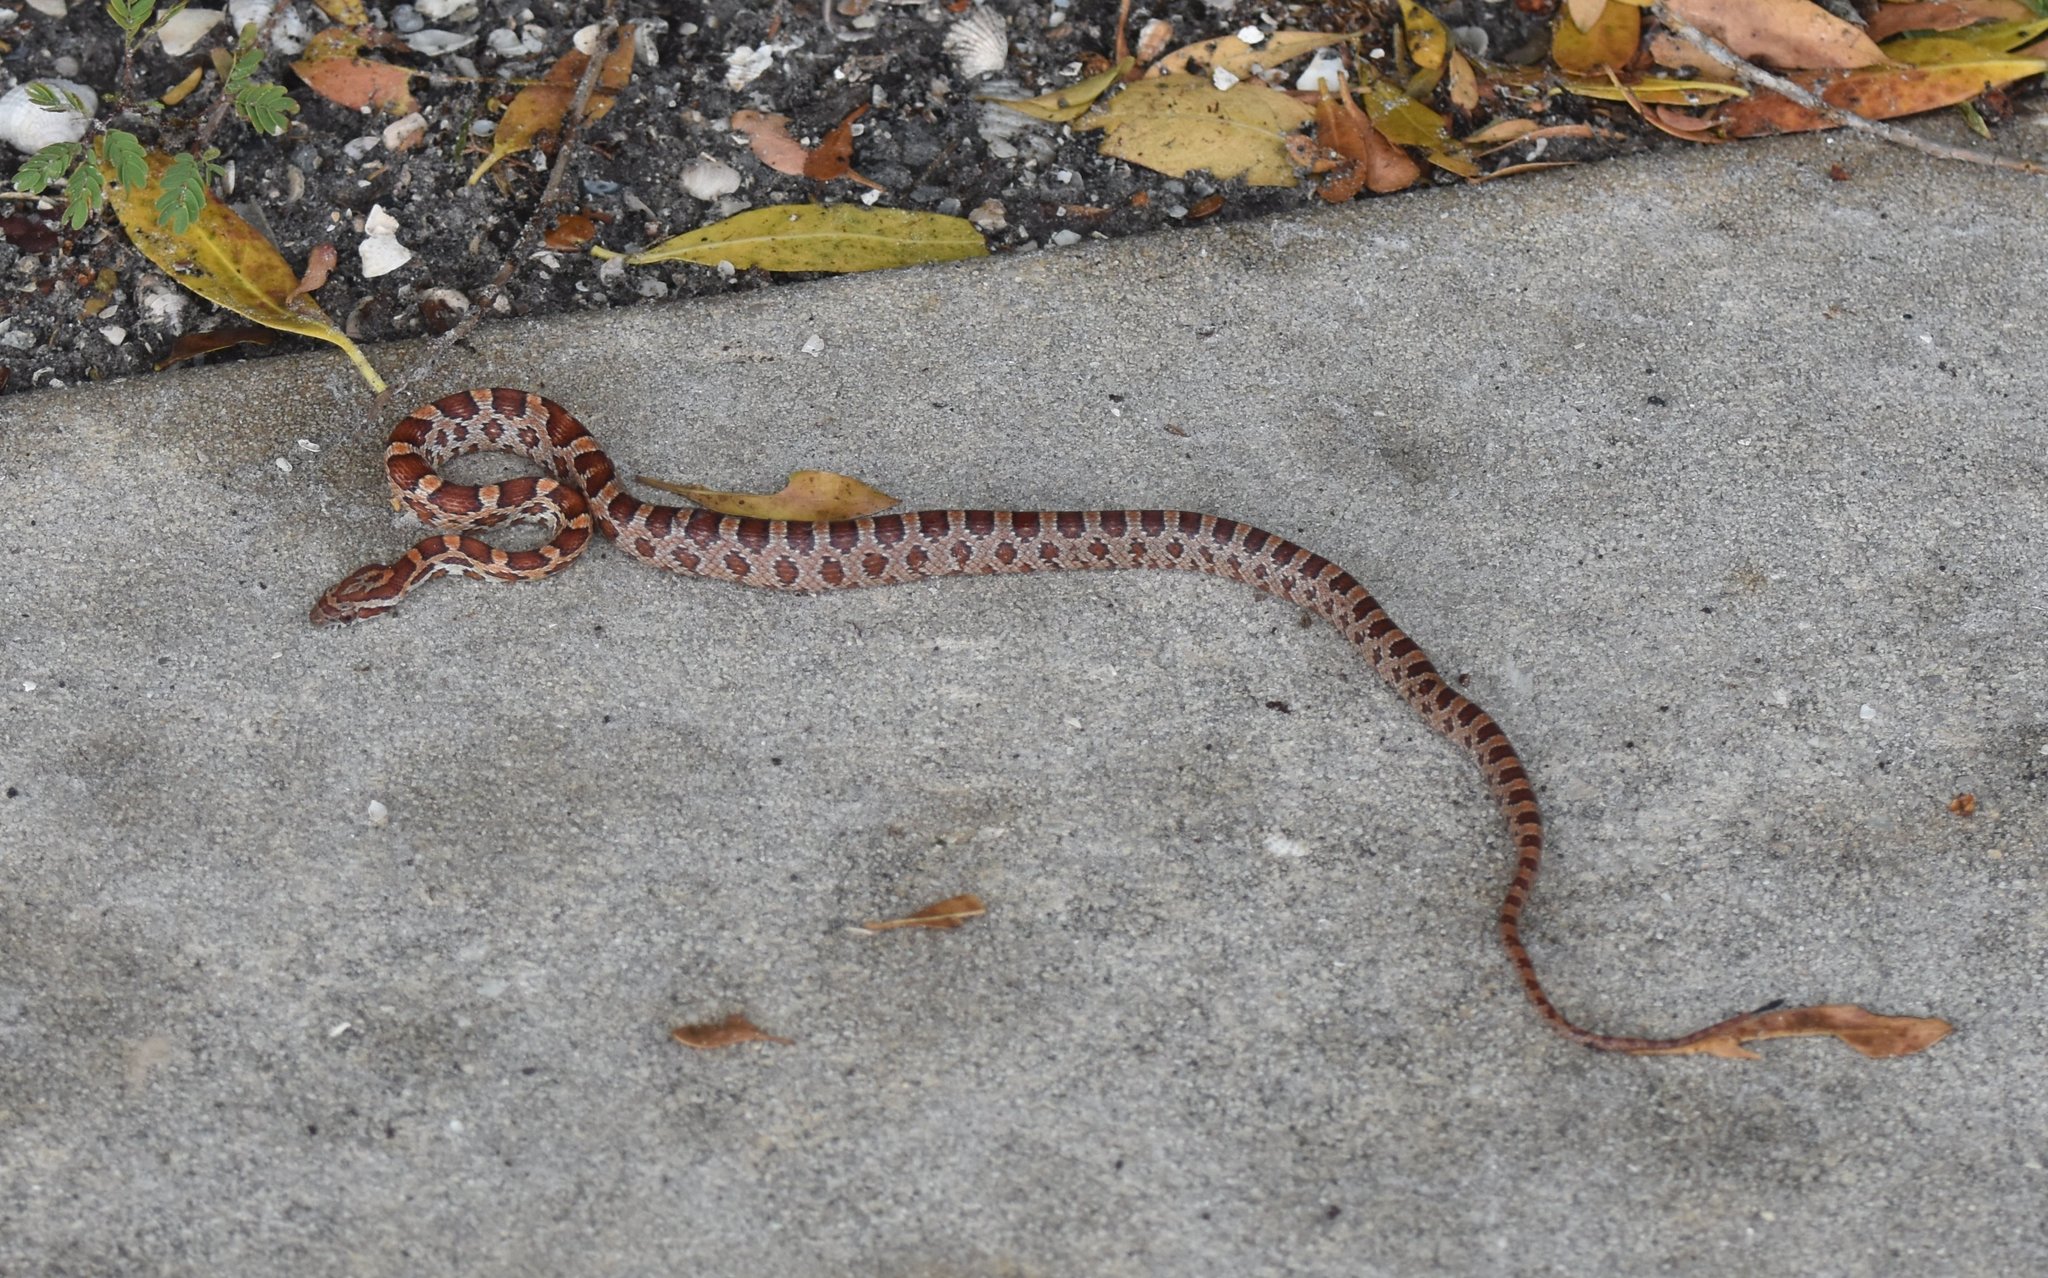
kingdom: Animalia
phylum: Chordata
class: Squamata
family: Colubridae
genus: Pantherophis
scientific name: Pantherophis guttatus
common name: Red cornsnake
